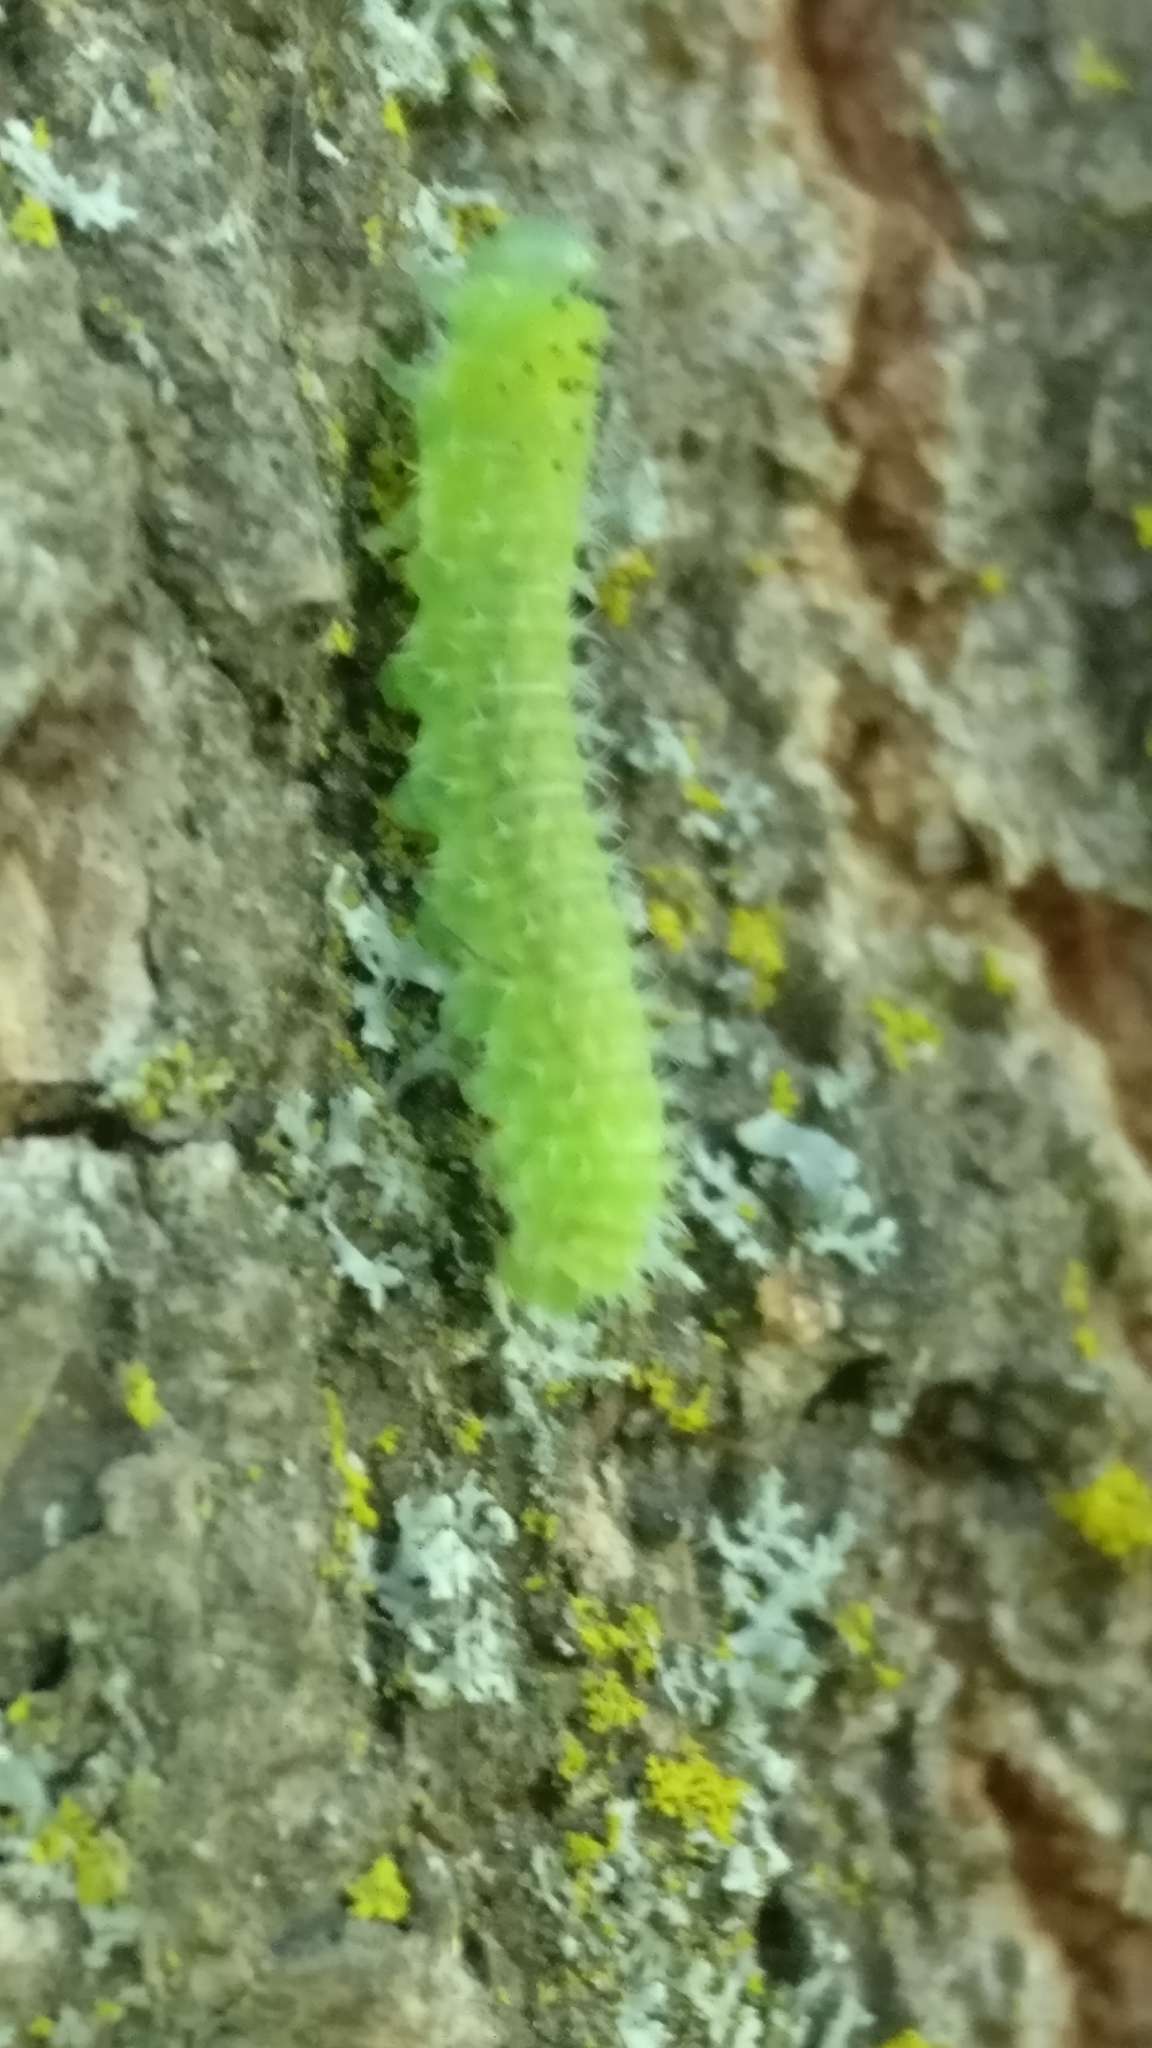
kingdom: Animalia
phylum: Arthropoda
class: Insecta
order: Hymenoptera
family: Tenthredinidae
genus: Periclista
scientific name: Periclista
